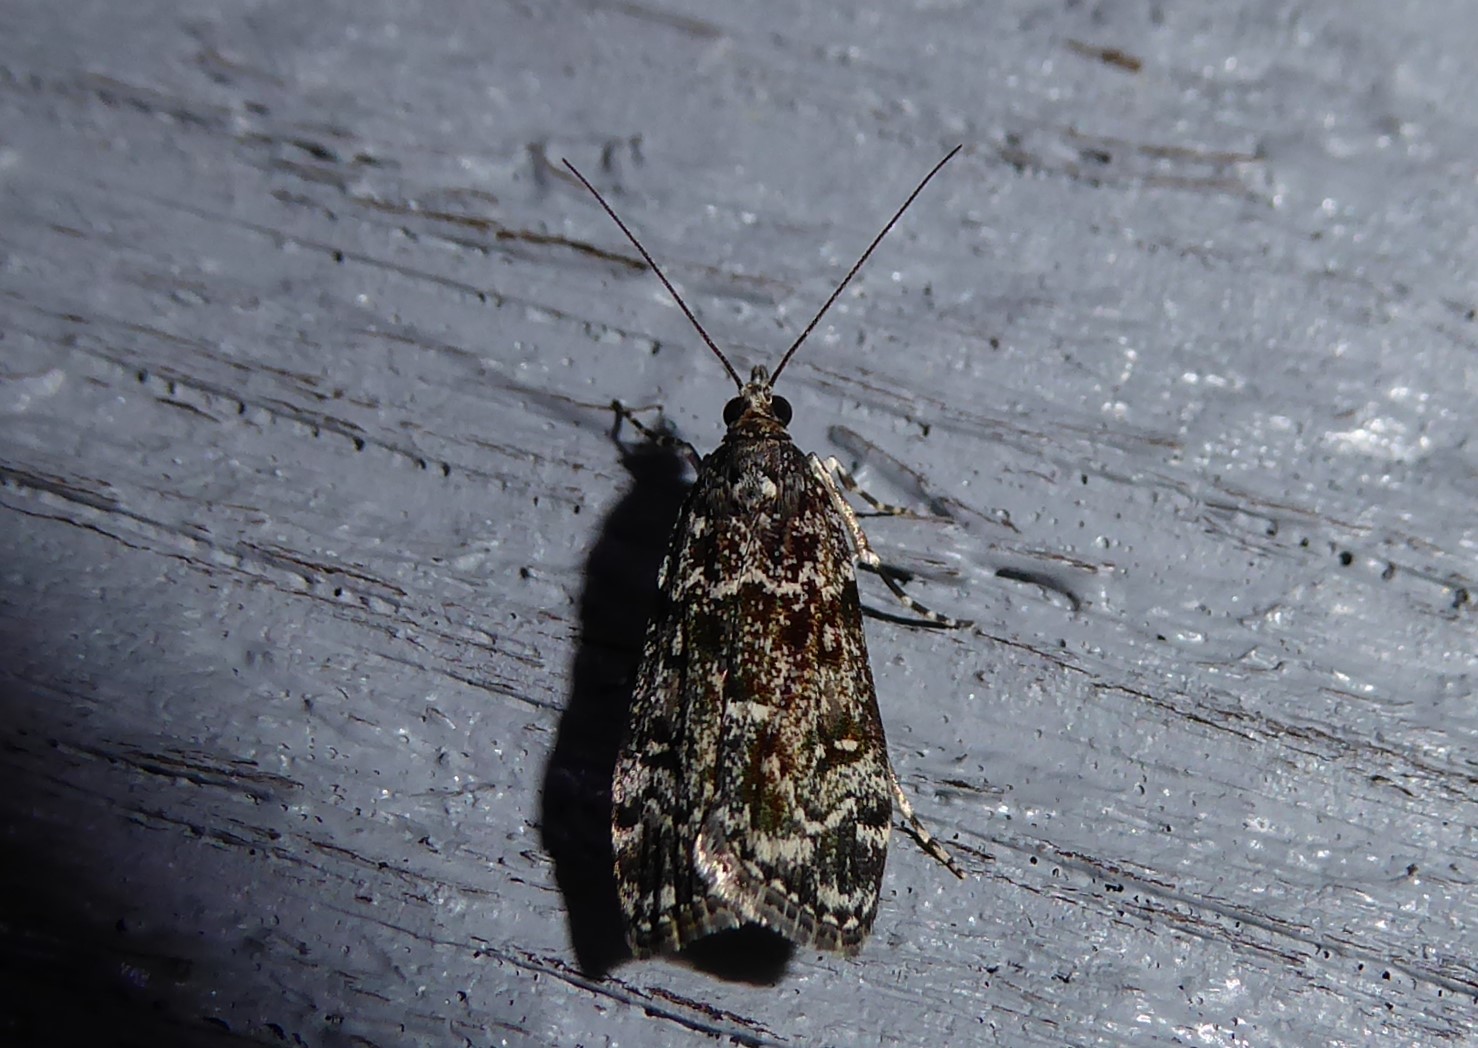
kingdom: Animalia
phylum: Arthropoda
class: Insecta
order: Lepidoptera
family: Crambidae
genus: Eudonia
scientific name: Eudonia philerga
